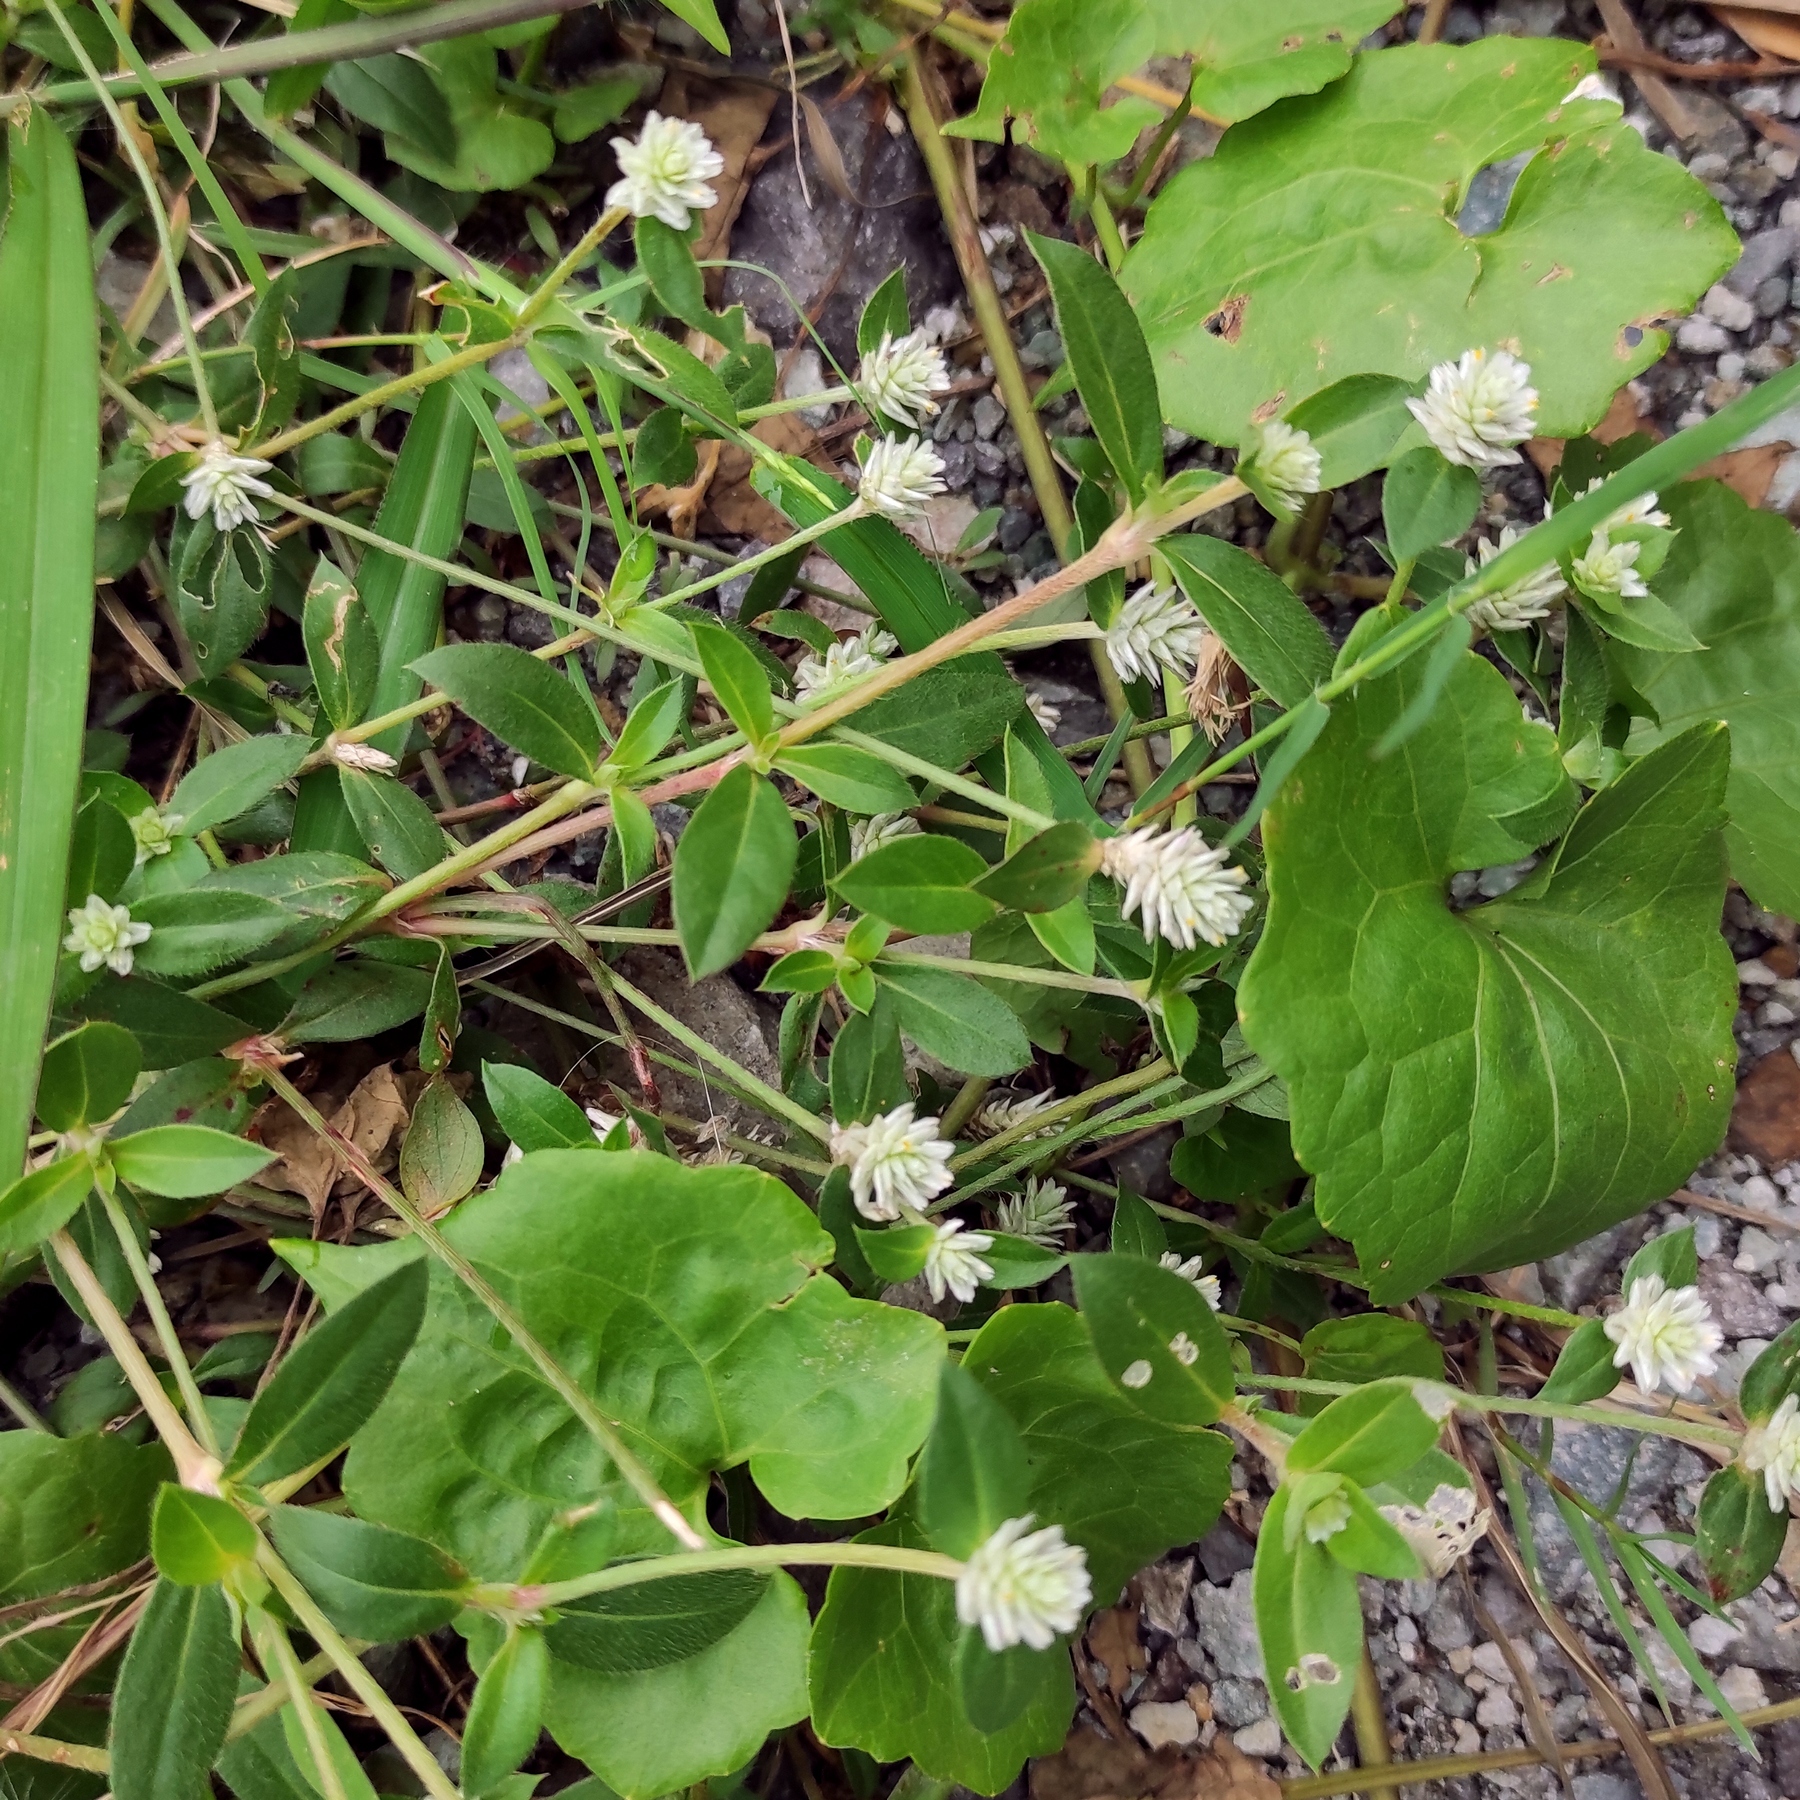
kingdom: Plantae
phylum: Tracheophyta
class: Magnoliopsida
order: Caryophyllales
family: Amaranthaceae
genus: Gomphrena
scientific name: Gomphrena celosioides
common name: Gomphrena-weed
